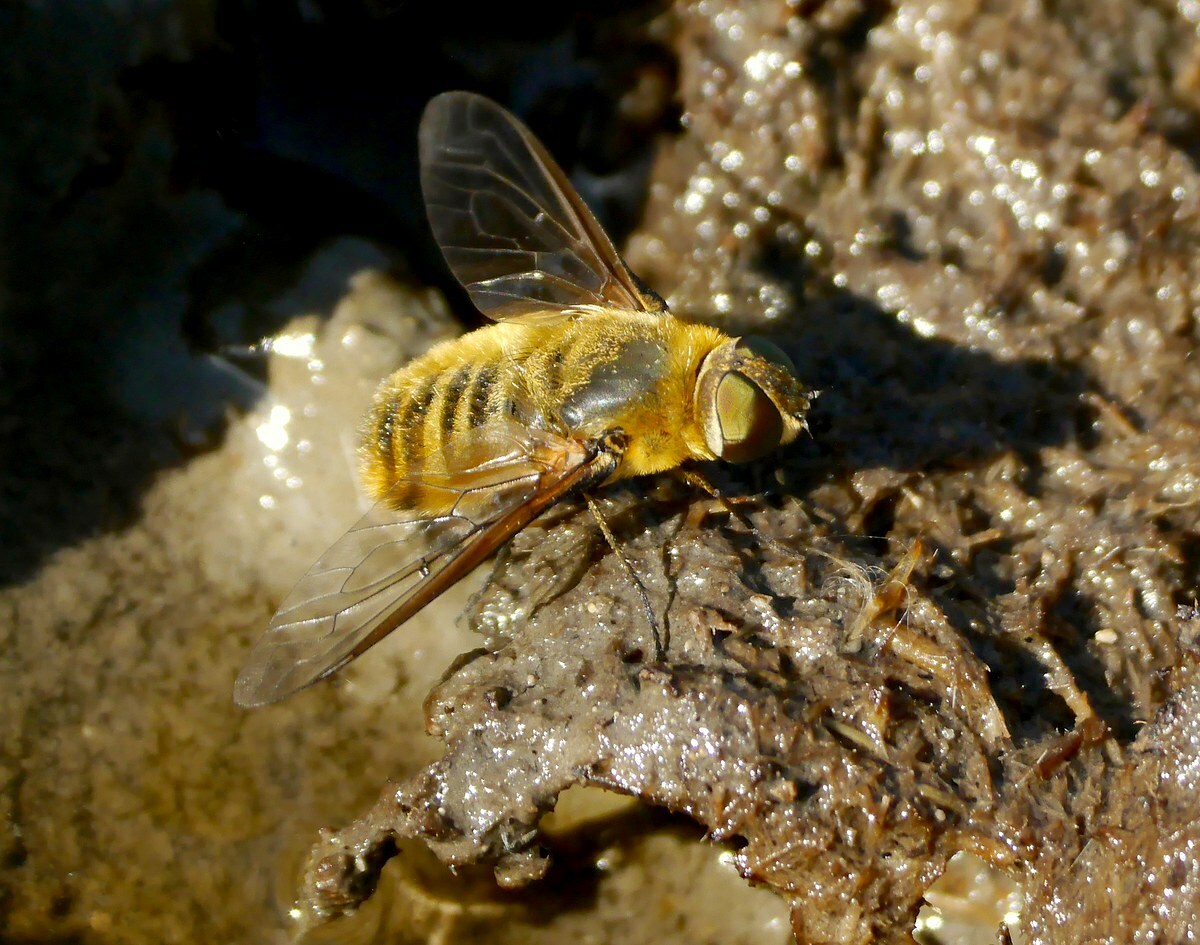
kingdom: Animalia
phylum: Arthropoda
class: Insecta
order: Diptera
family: Bombyliidae
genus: Villa
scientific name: Villa hottentotta
